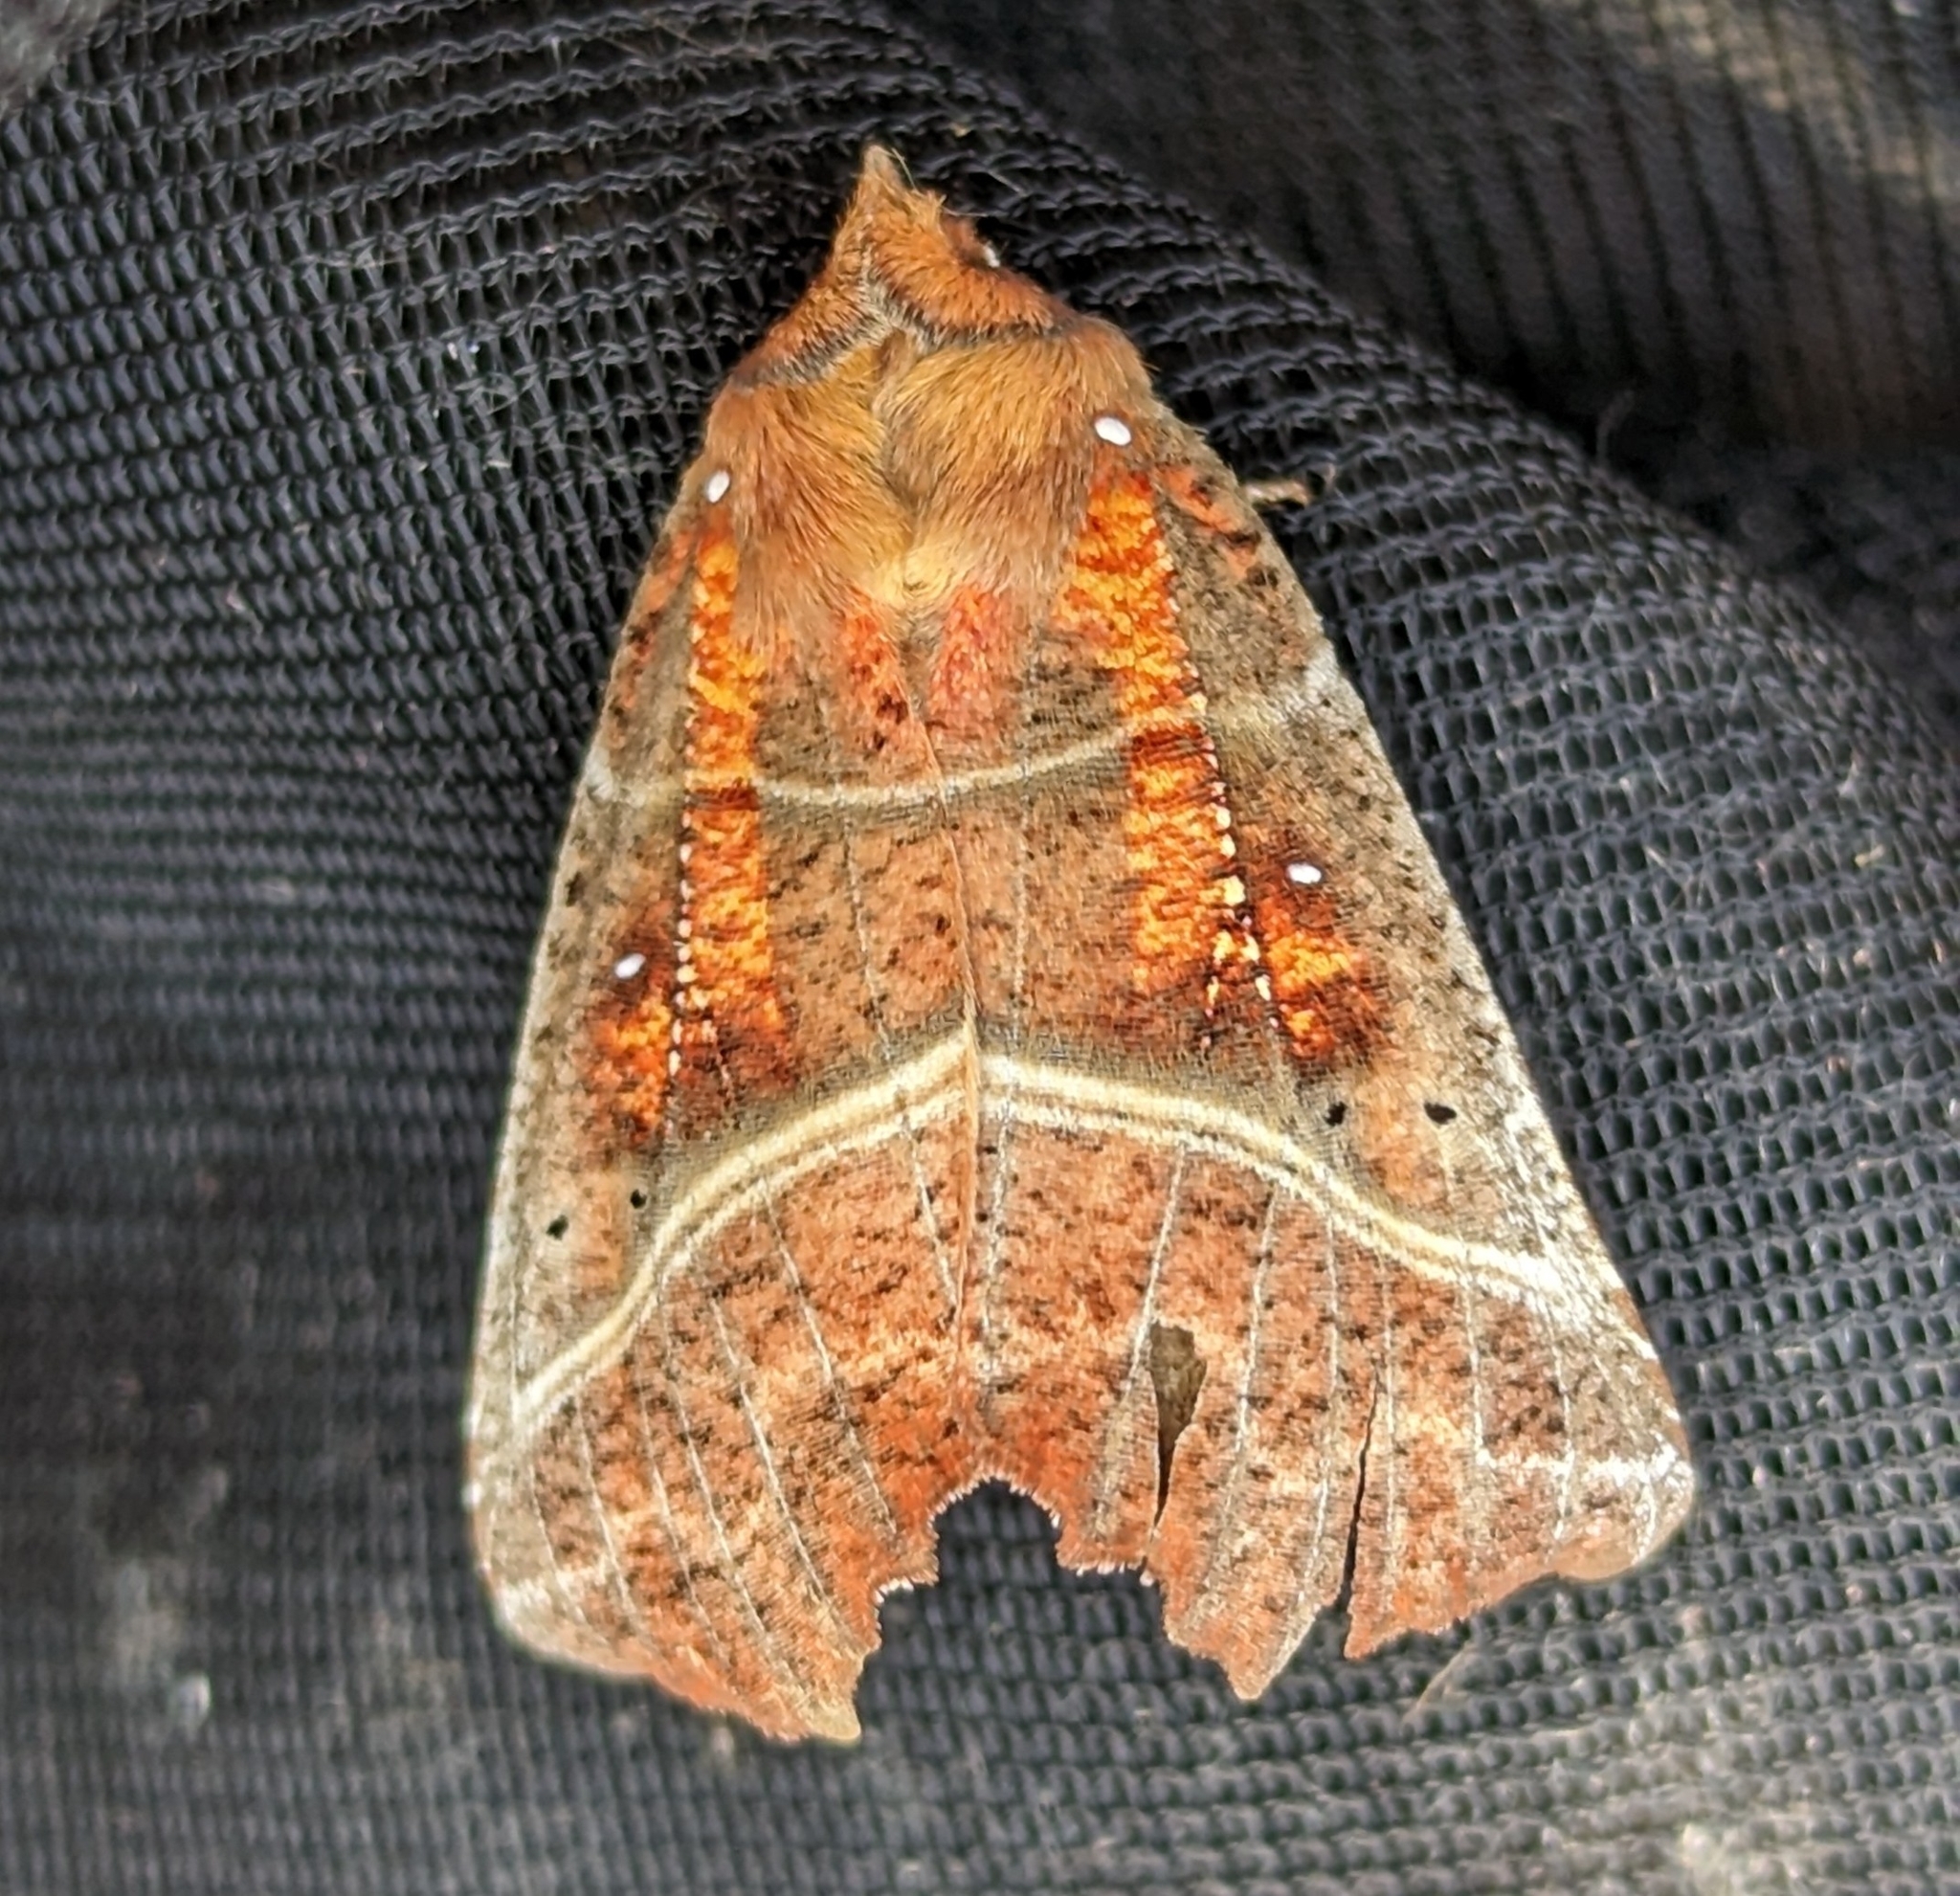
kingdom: Animalia
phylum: Arthropoda
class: Insecta
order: Lepidoptera
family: Erebidae
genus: Scoliopteryx
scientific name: Scoliopteryx libatrix
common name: Herald
